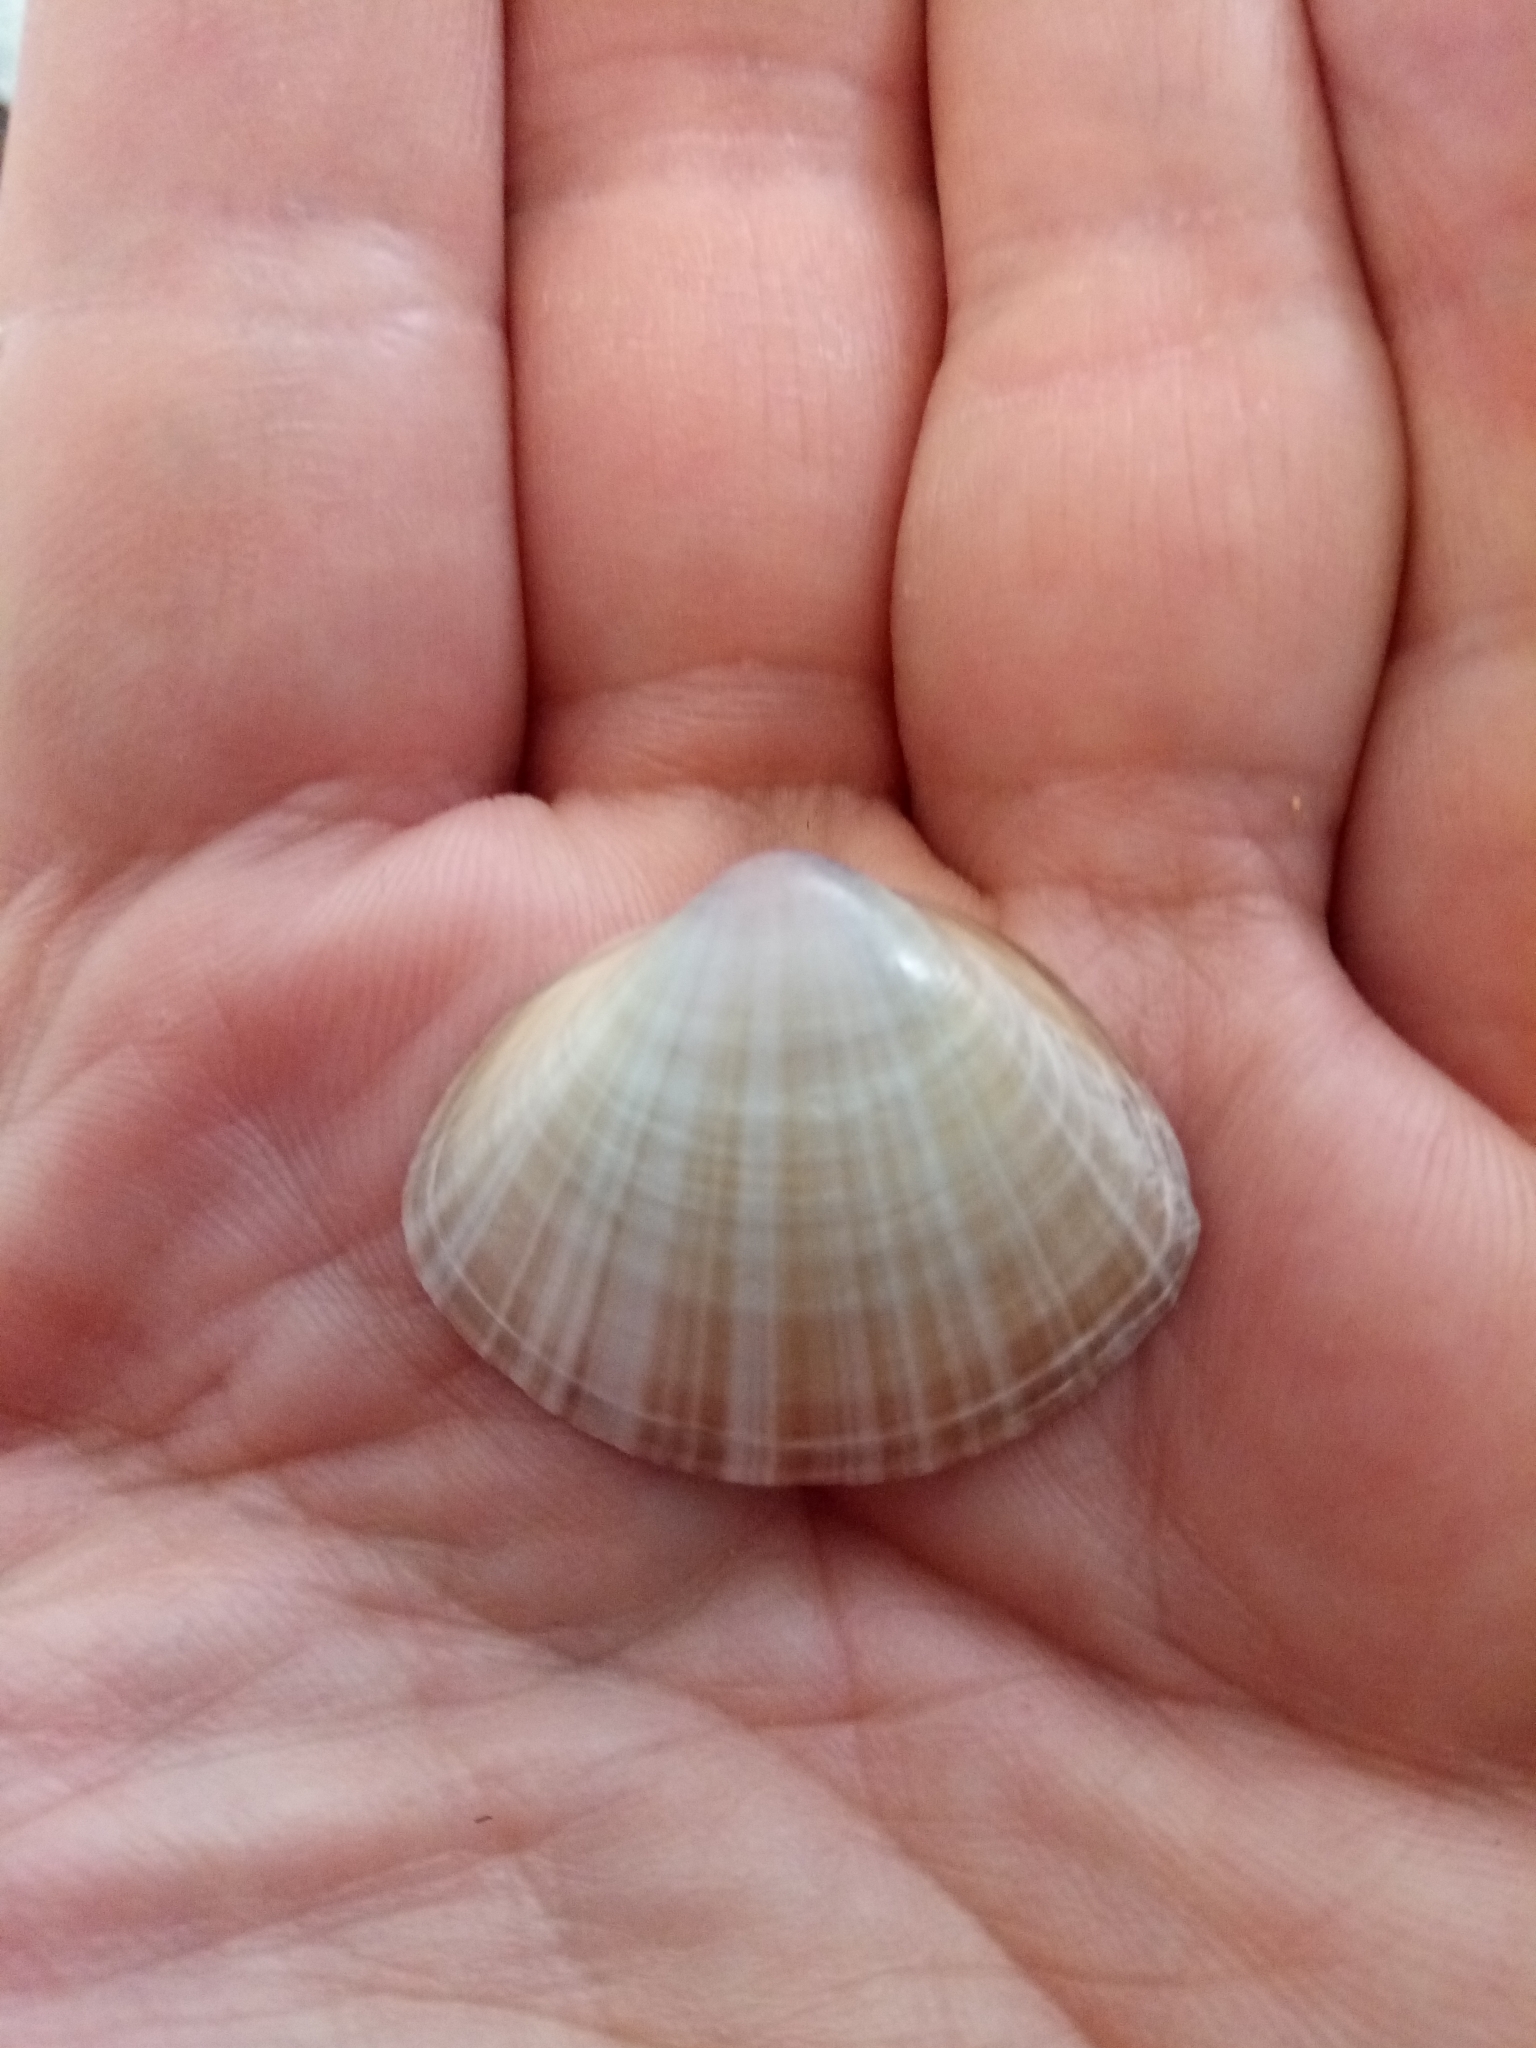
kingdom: Animalia
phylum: Mollusca
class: Bivalvia
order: Venerida
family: Mactridae
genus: Mactra
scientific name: Mactra stultorum
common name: Rayed trough shell
